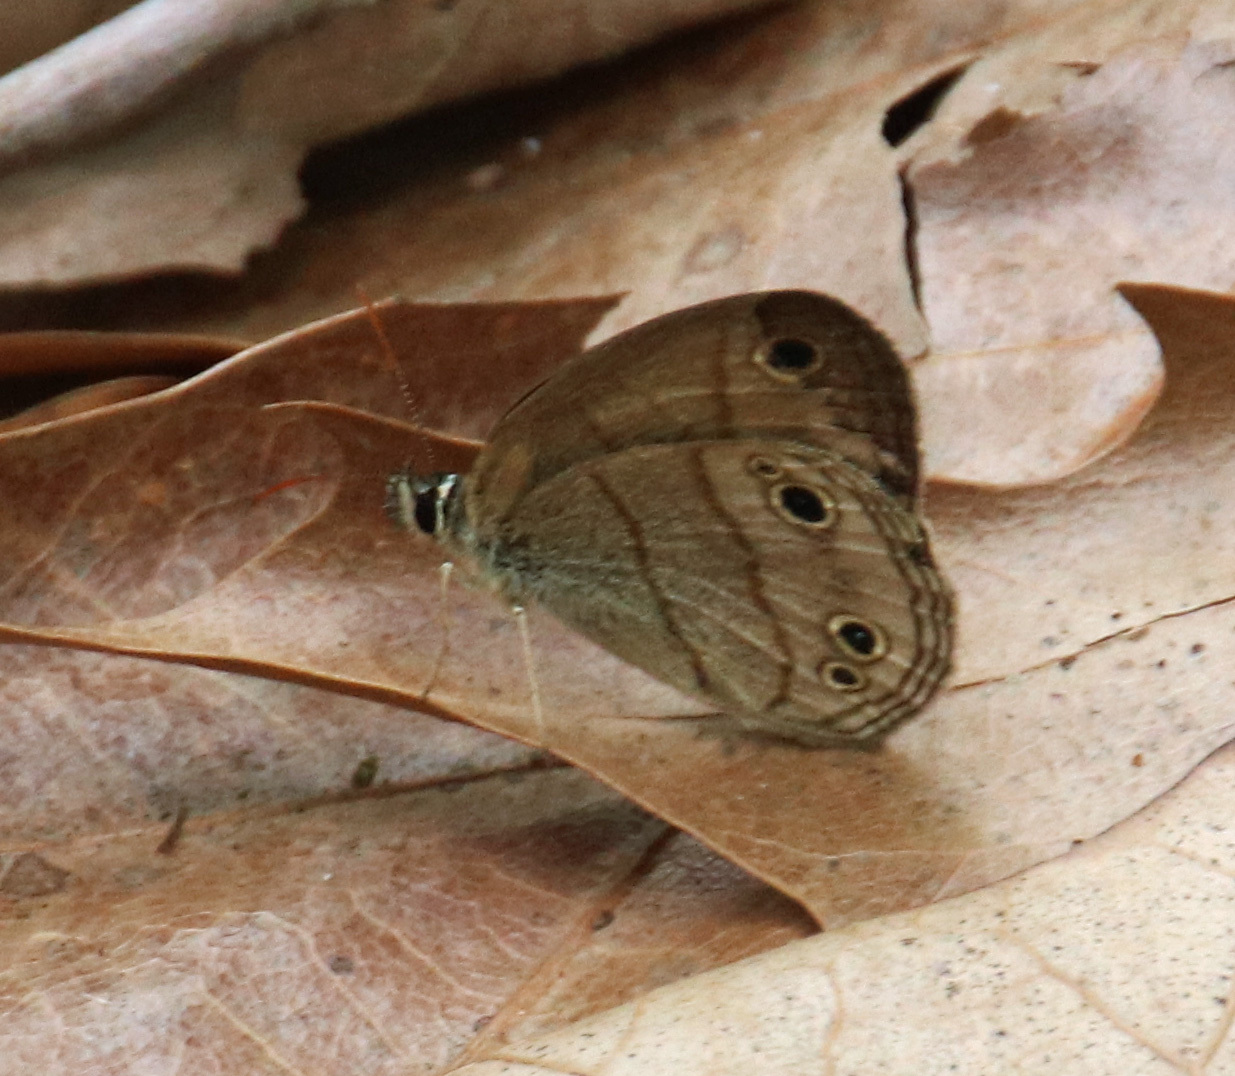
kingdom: Animalia
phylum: Arthropoda
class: Insecta
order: Lepidoptera
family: Nymphalidae
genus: Euptychia
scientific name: Euptychia cymela
